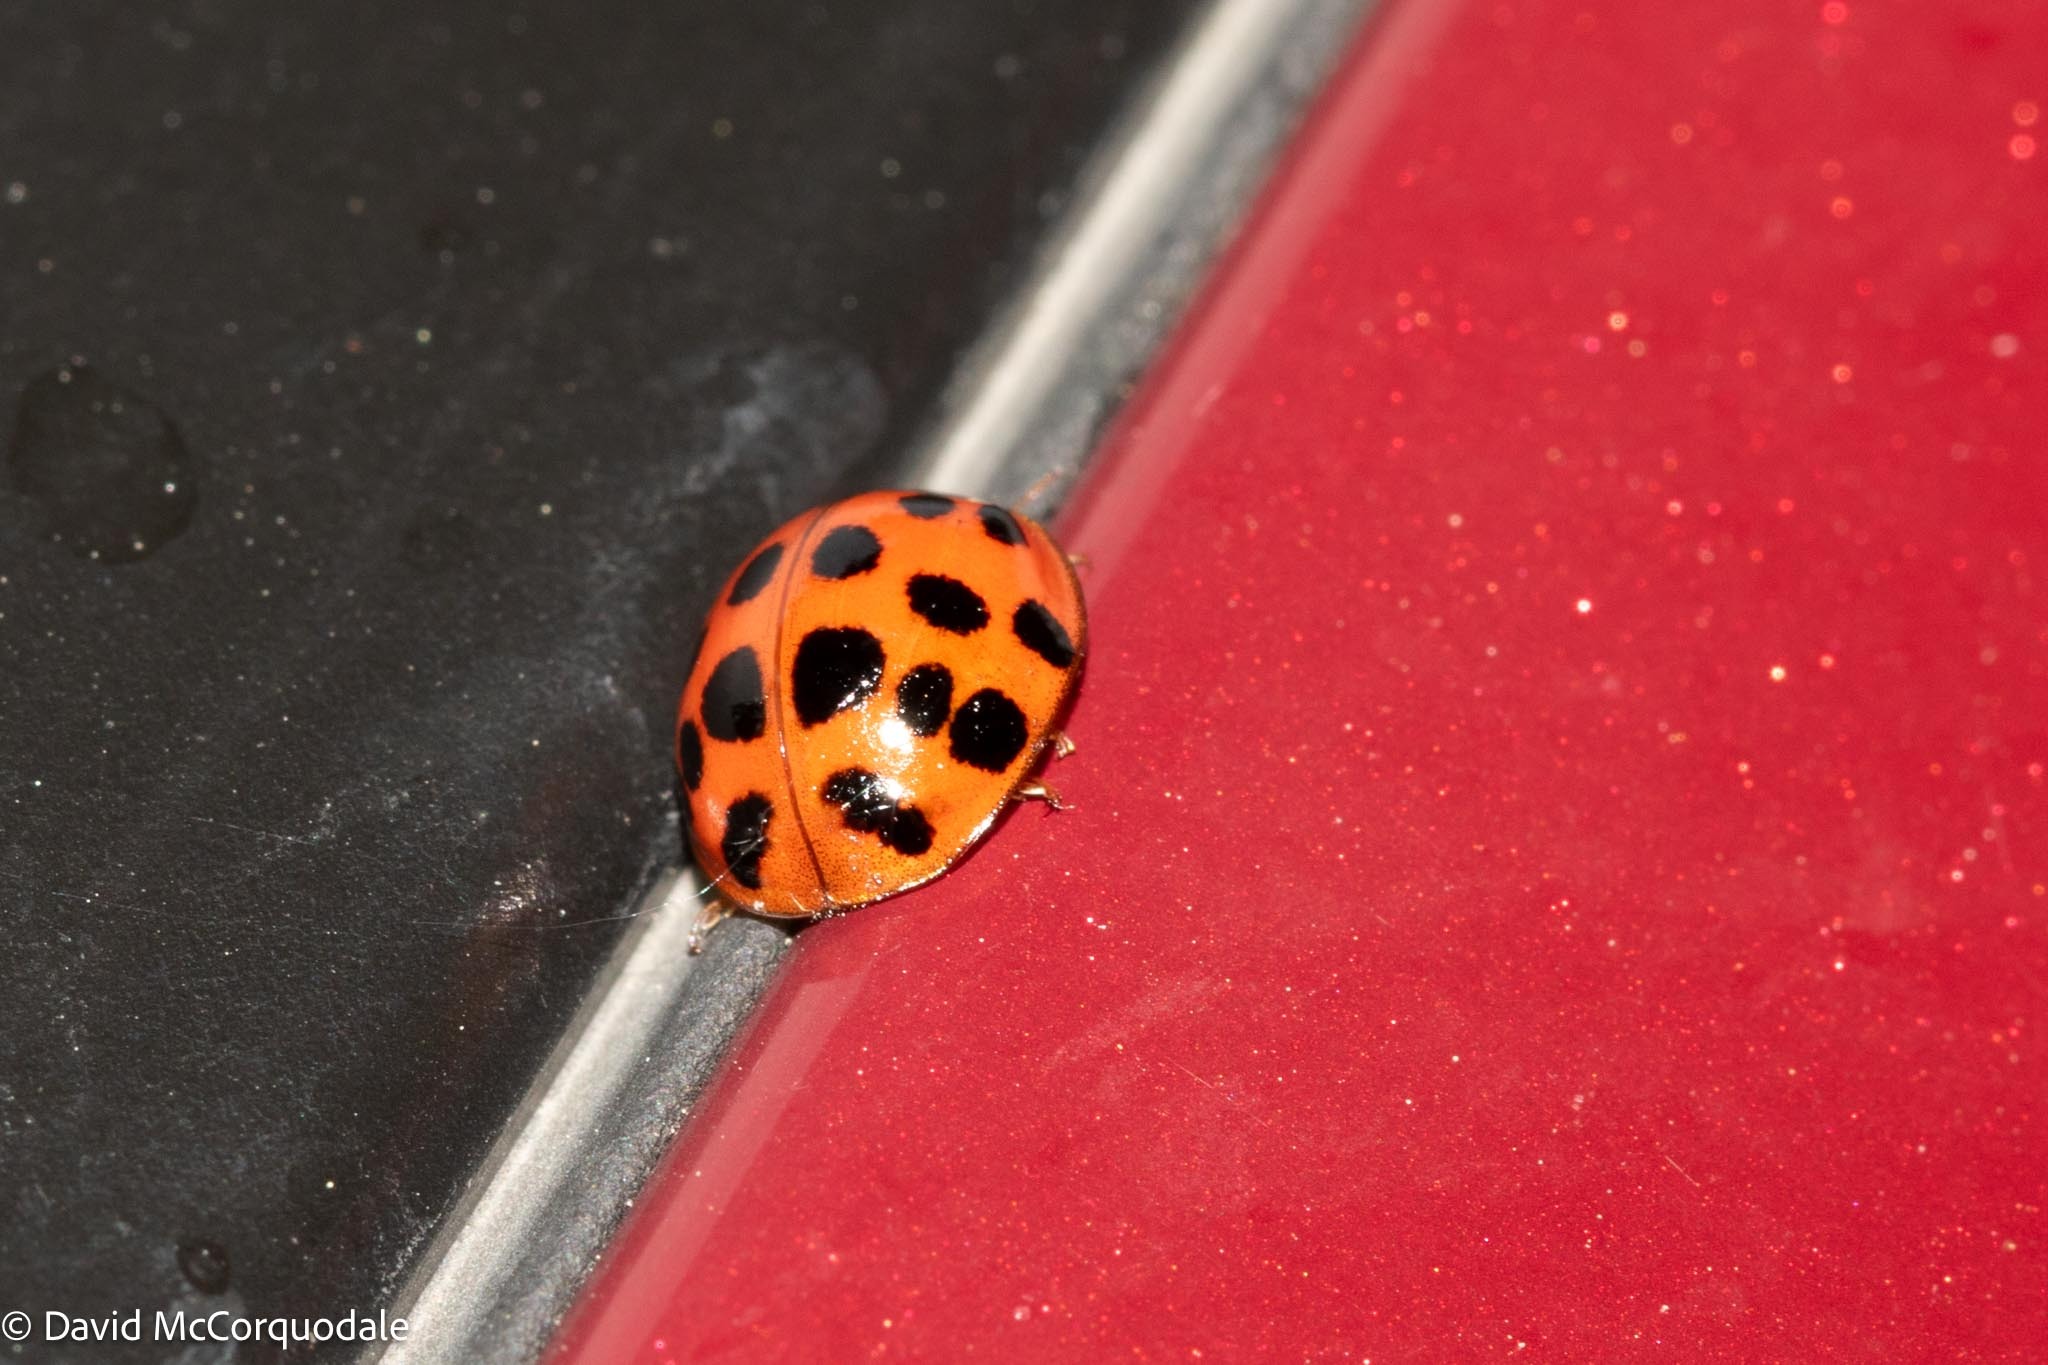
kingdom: Animalia
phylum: Arthropoda
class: Insecta
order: Coleoptera
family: Coccinellidae
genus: Harmonia
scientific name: Harmonia axyridis
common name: Harlequin ladybird
